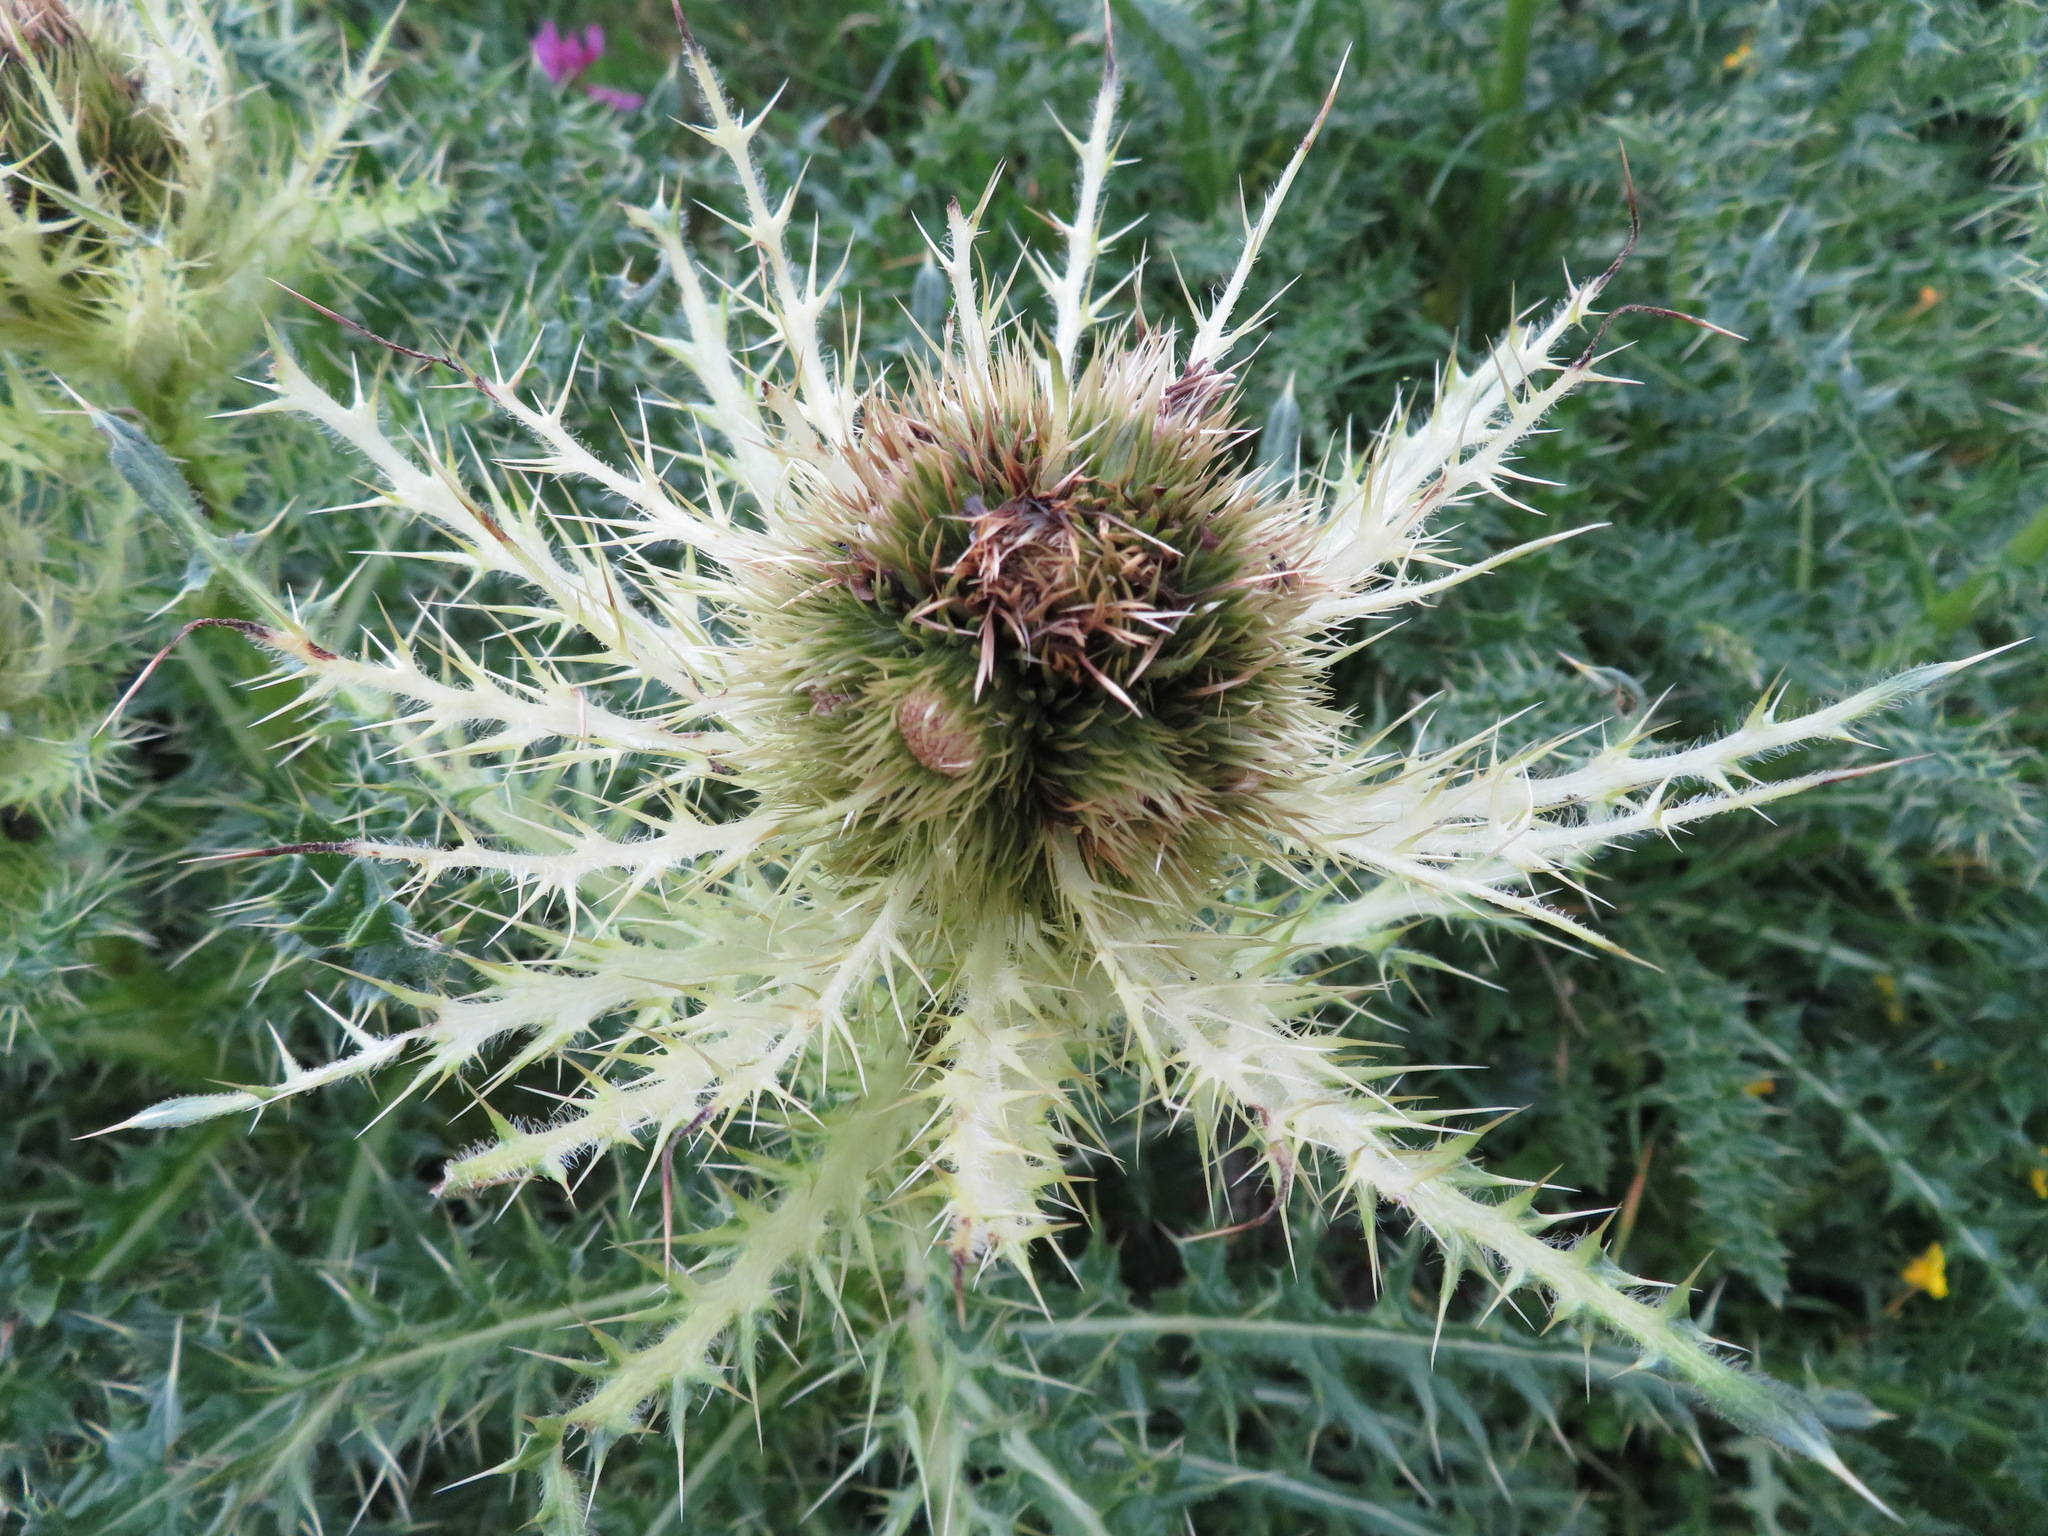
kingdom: Plantae
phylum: Tracheophyta
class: Magnoliopsida
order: Asterales
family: Asteraceae
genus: Cirsium
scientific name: Cirsium spinosissimum
